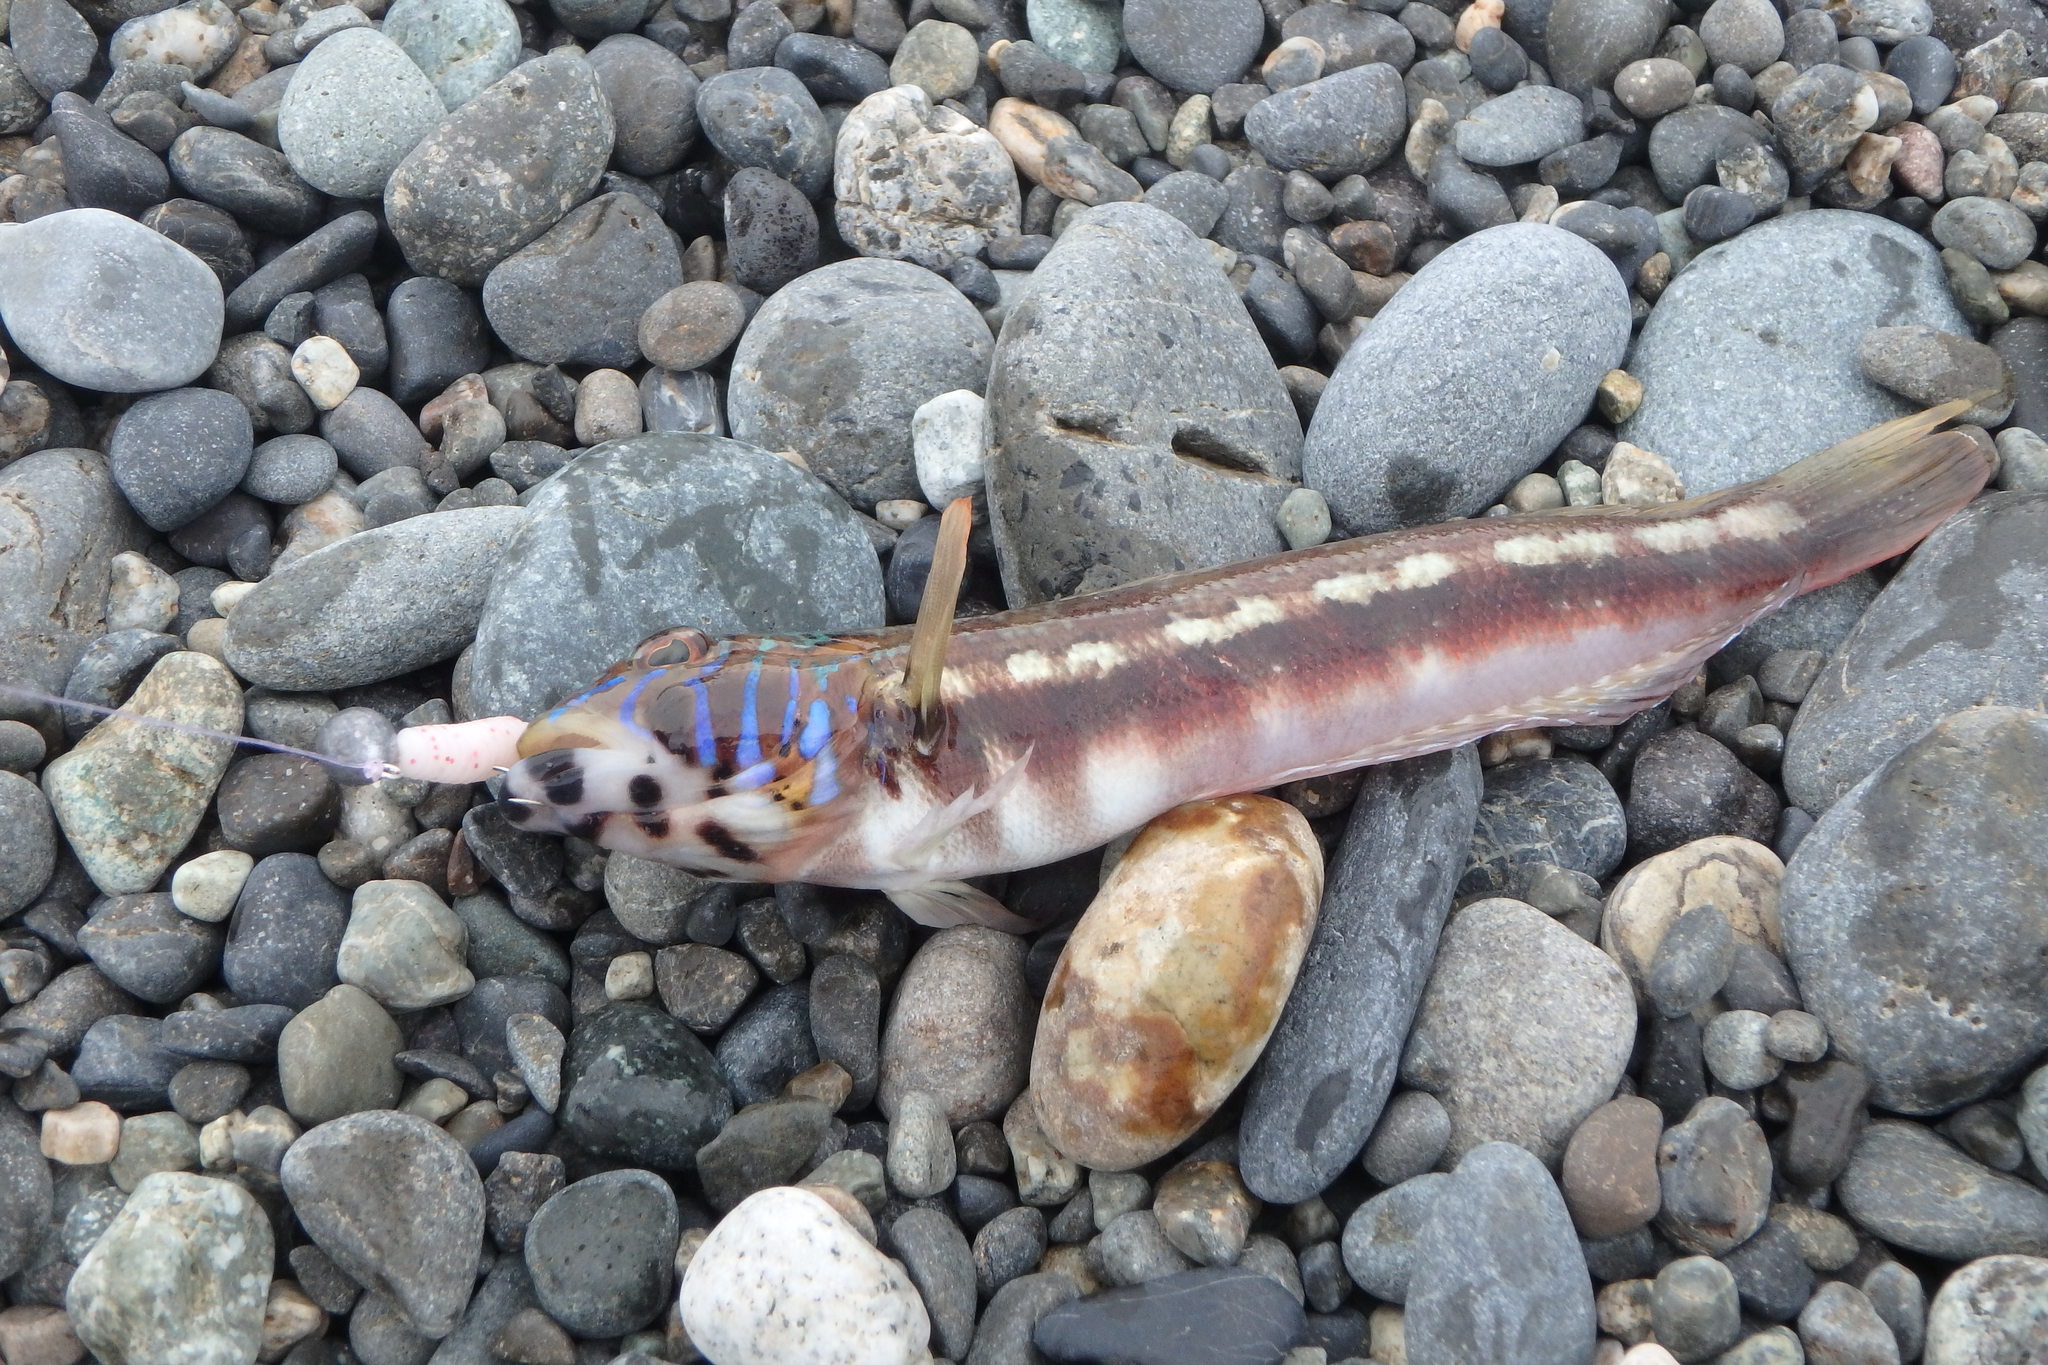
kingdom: Animalia
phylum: Chordata
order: Perciformes
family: Pinguipedidae
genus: Parapercis
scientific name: Parapercis pulchella
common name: Grub fish
